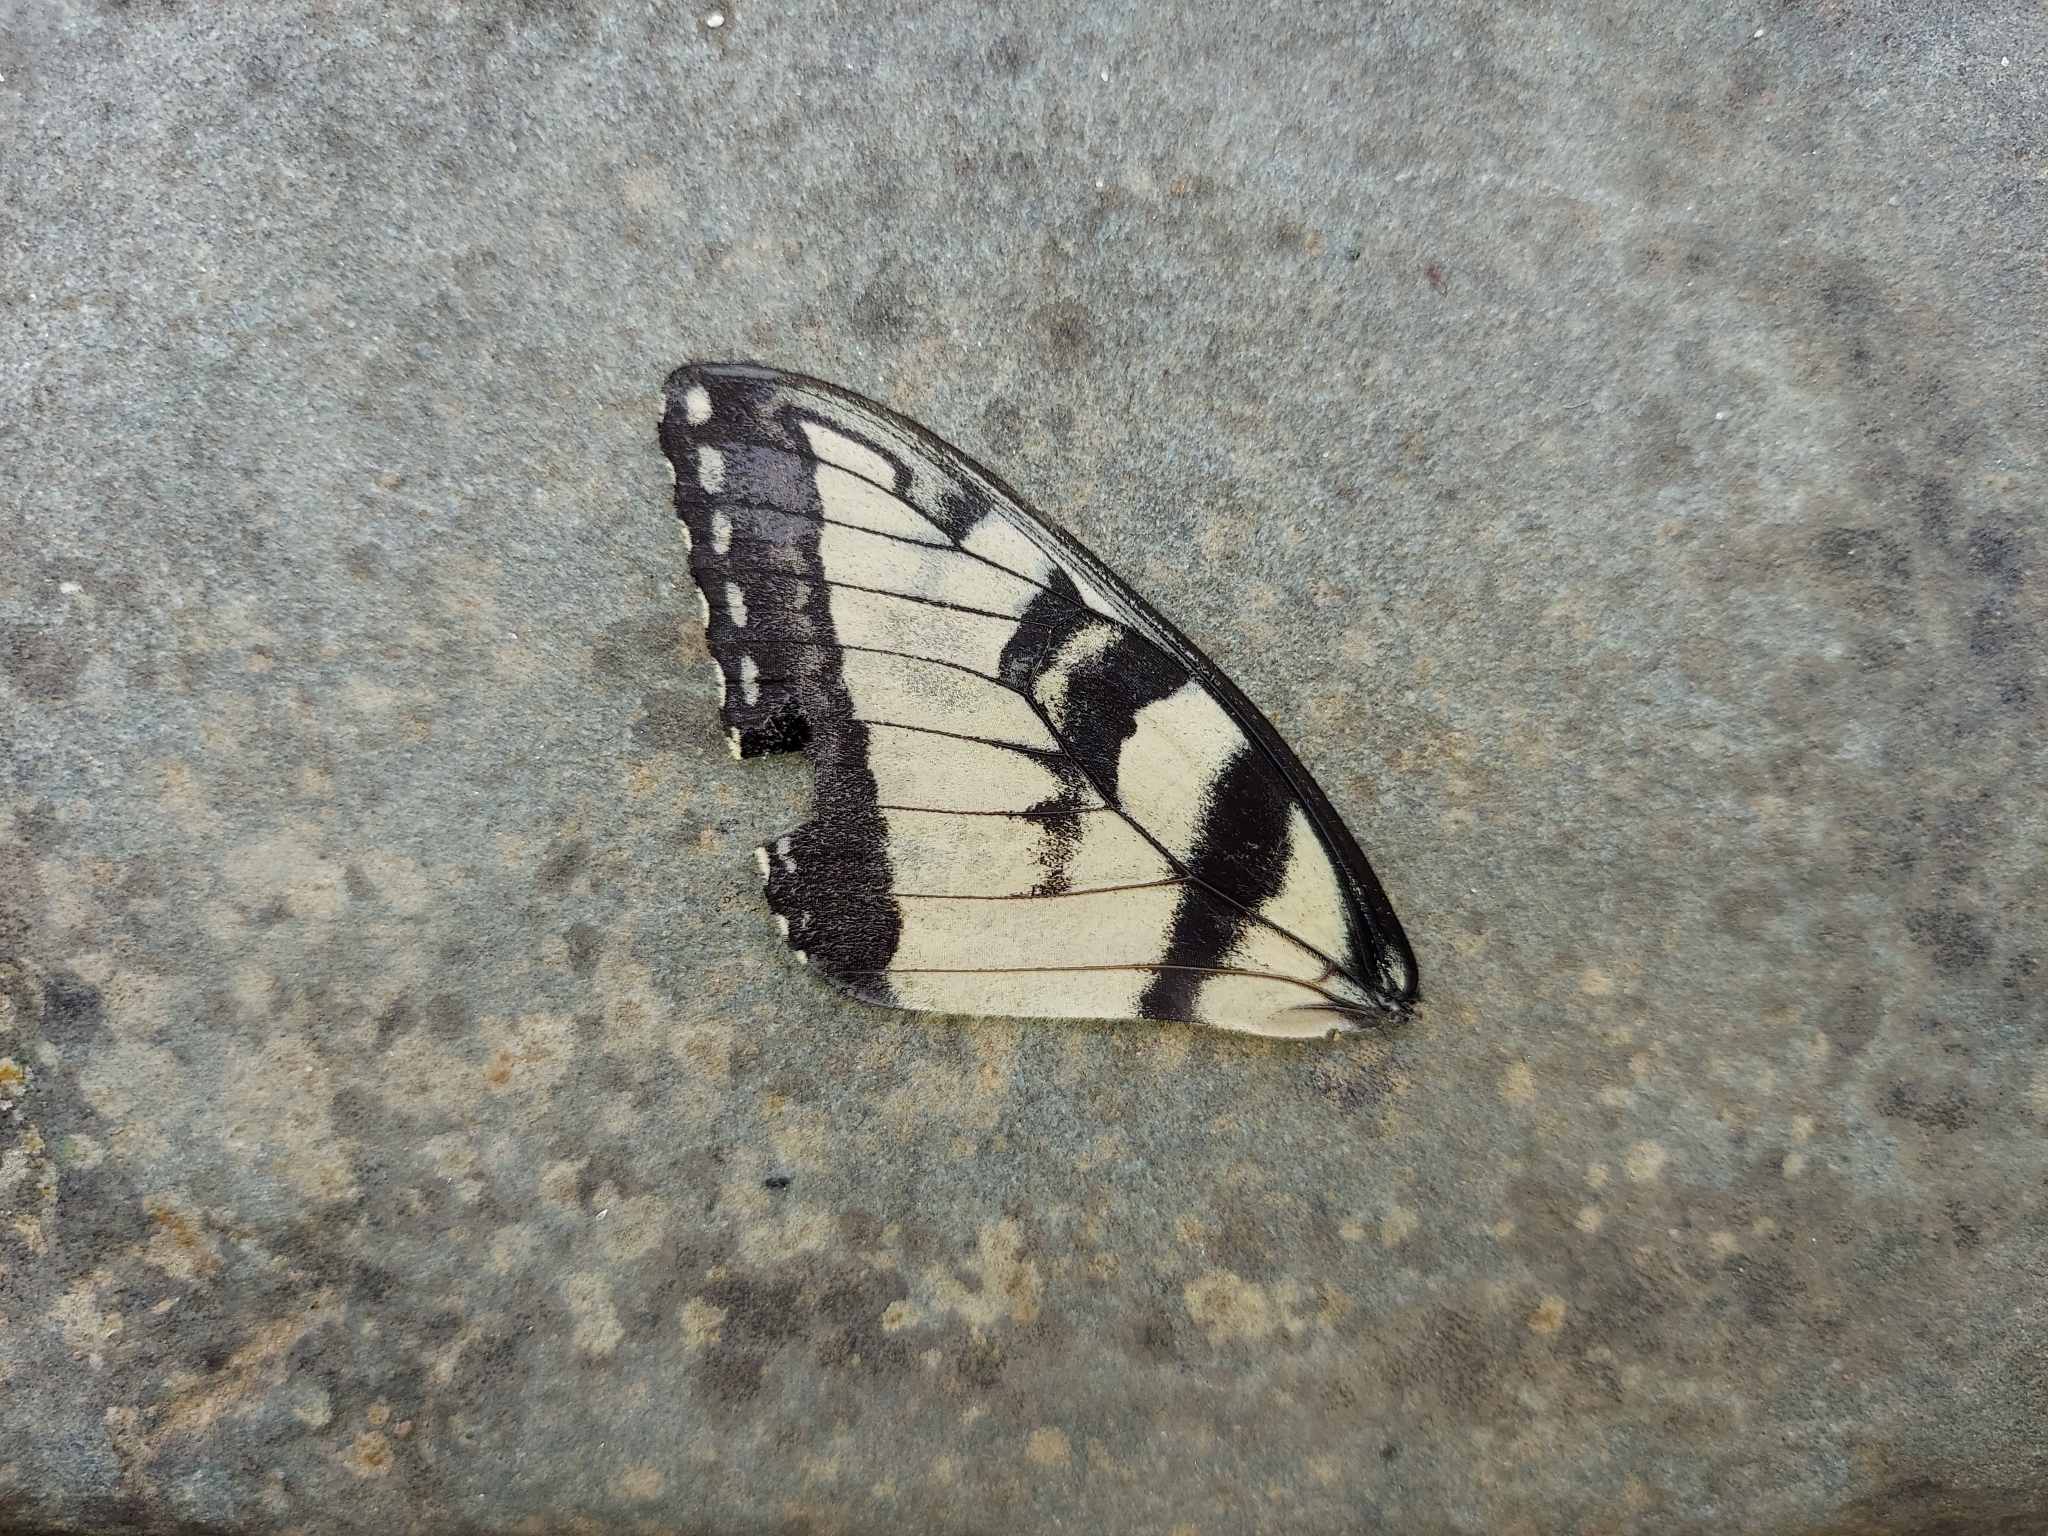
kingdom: Animalia
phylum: Arthropoda
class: Insecta
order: Lepidoptera
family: Papilionidae
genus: Papilio
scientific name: Papilio glaucus
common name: Tiger swallowtail
